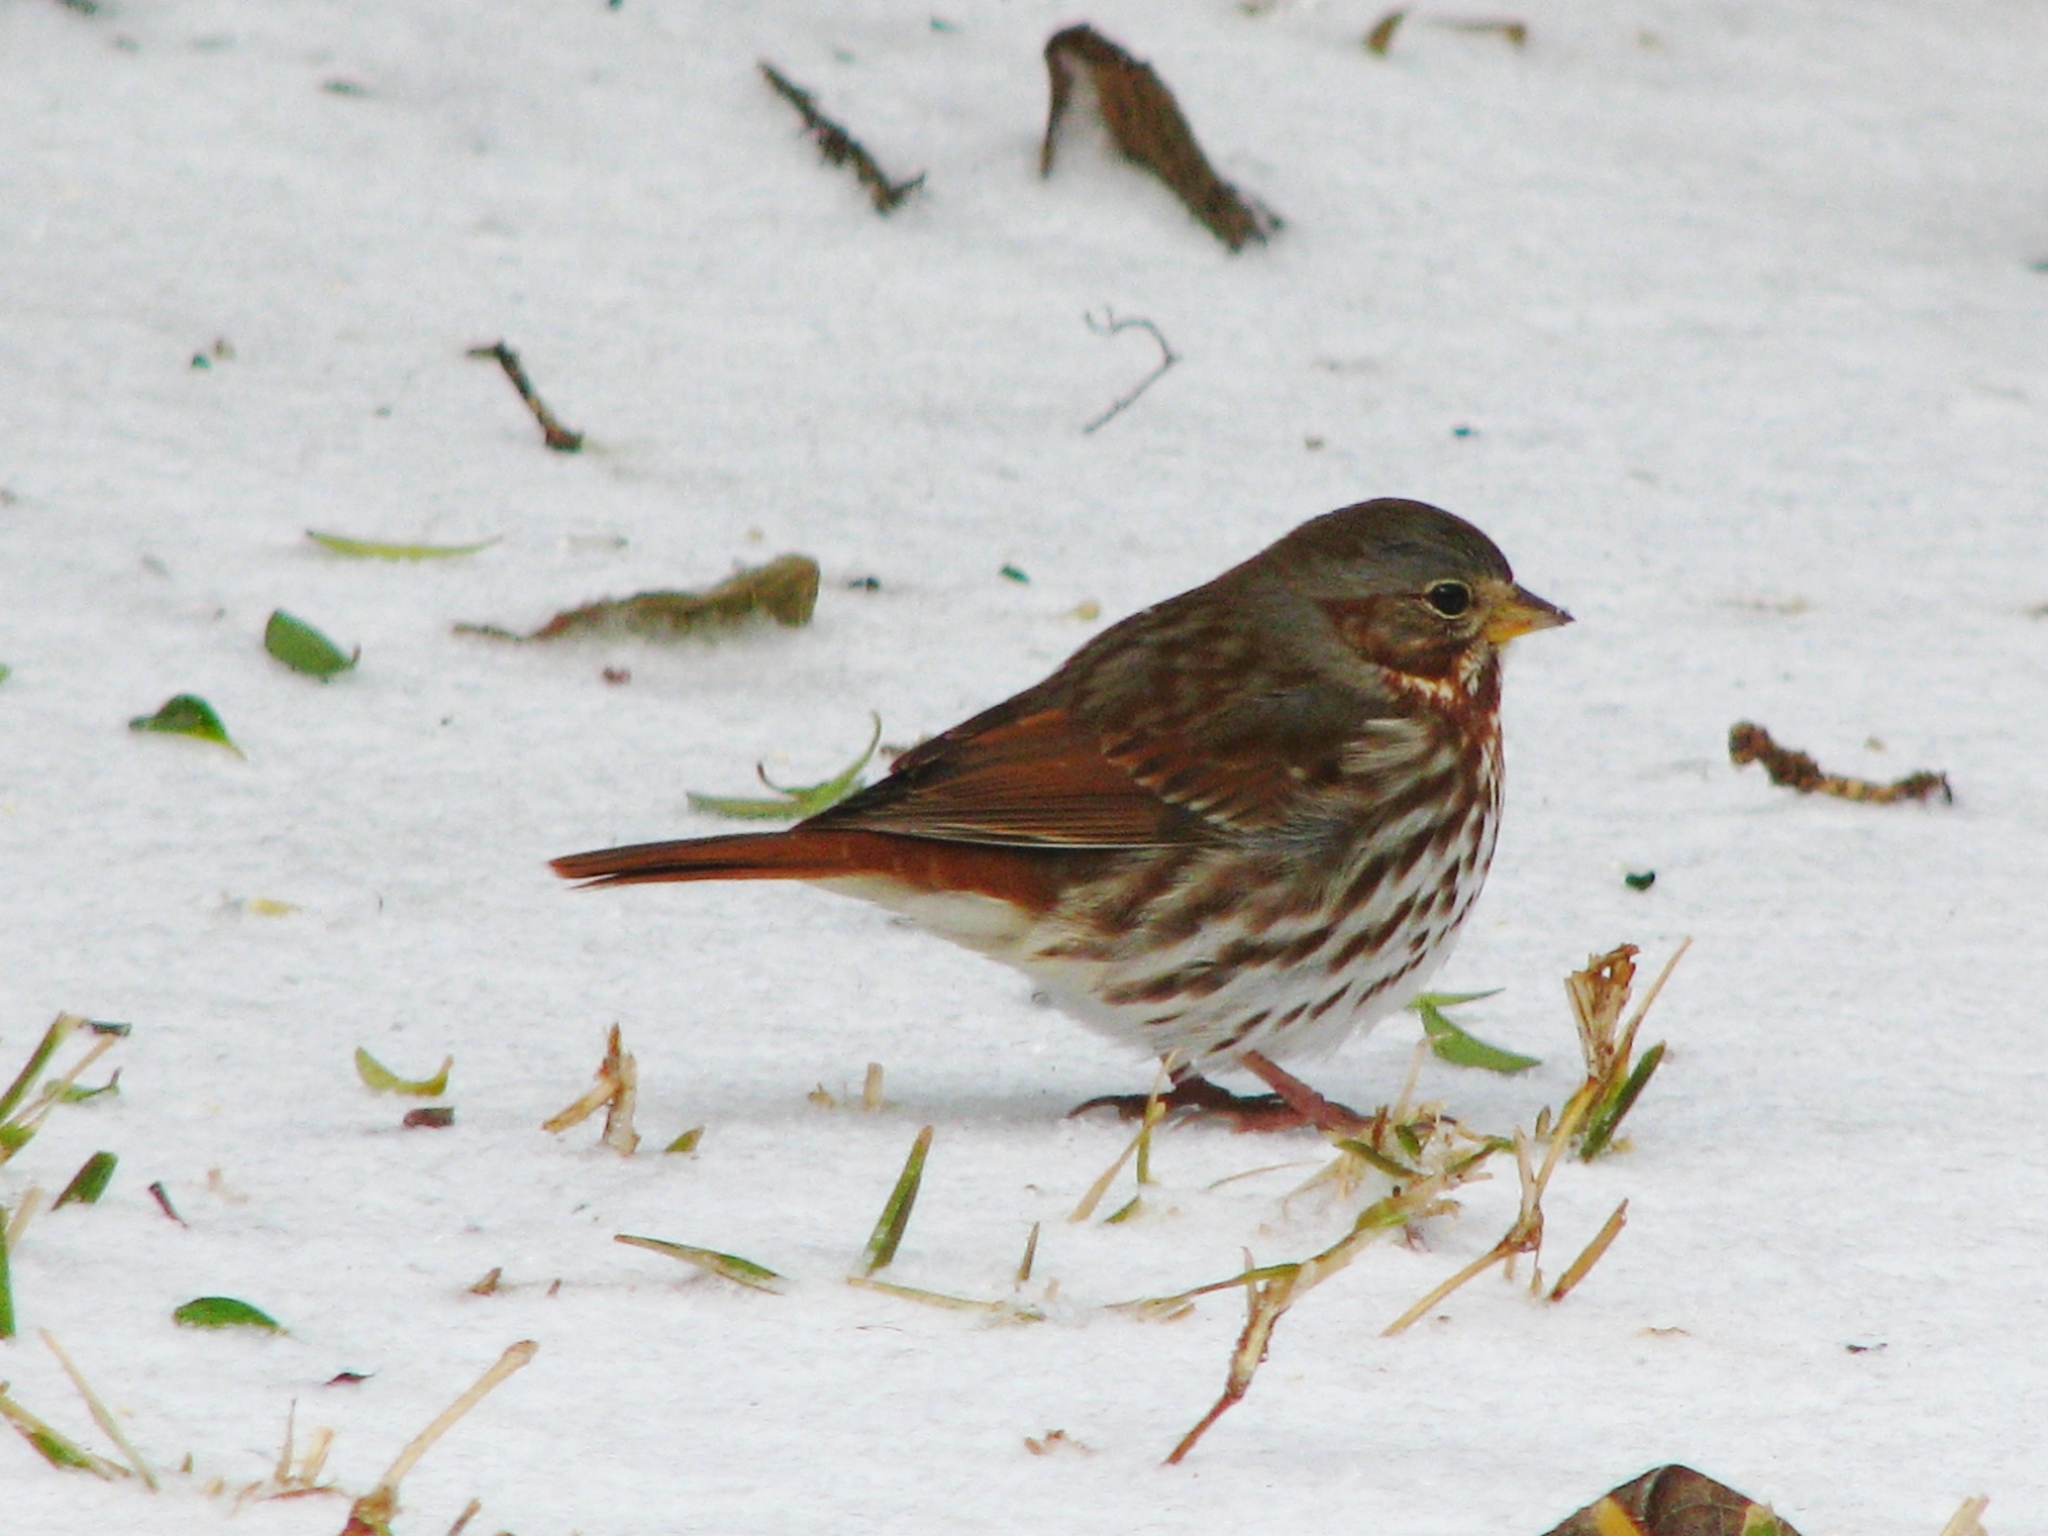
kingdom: Animalia
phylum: Chordata
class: Aves
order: Passeriformes
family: Passerellidae
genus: Passerella
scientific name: Passerella iliaca
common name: Fox sparrow
